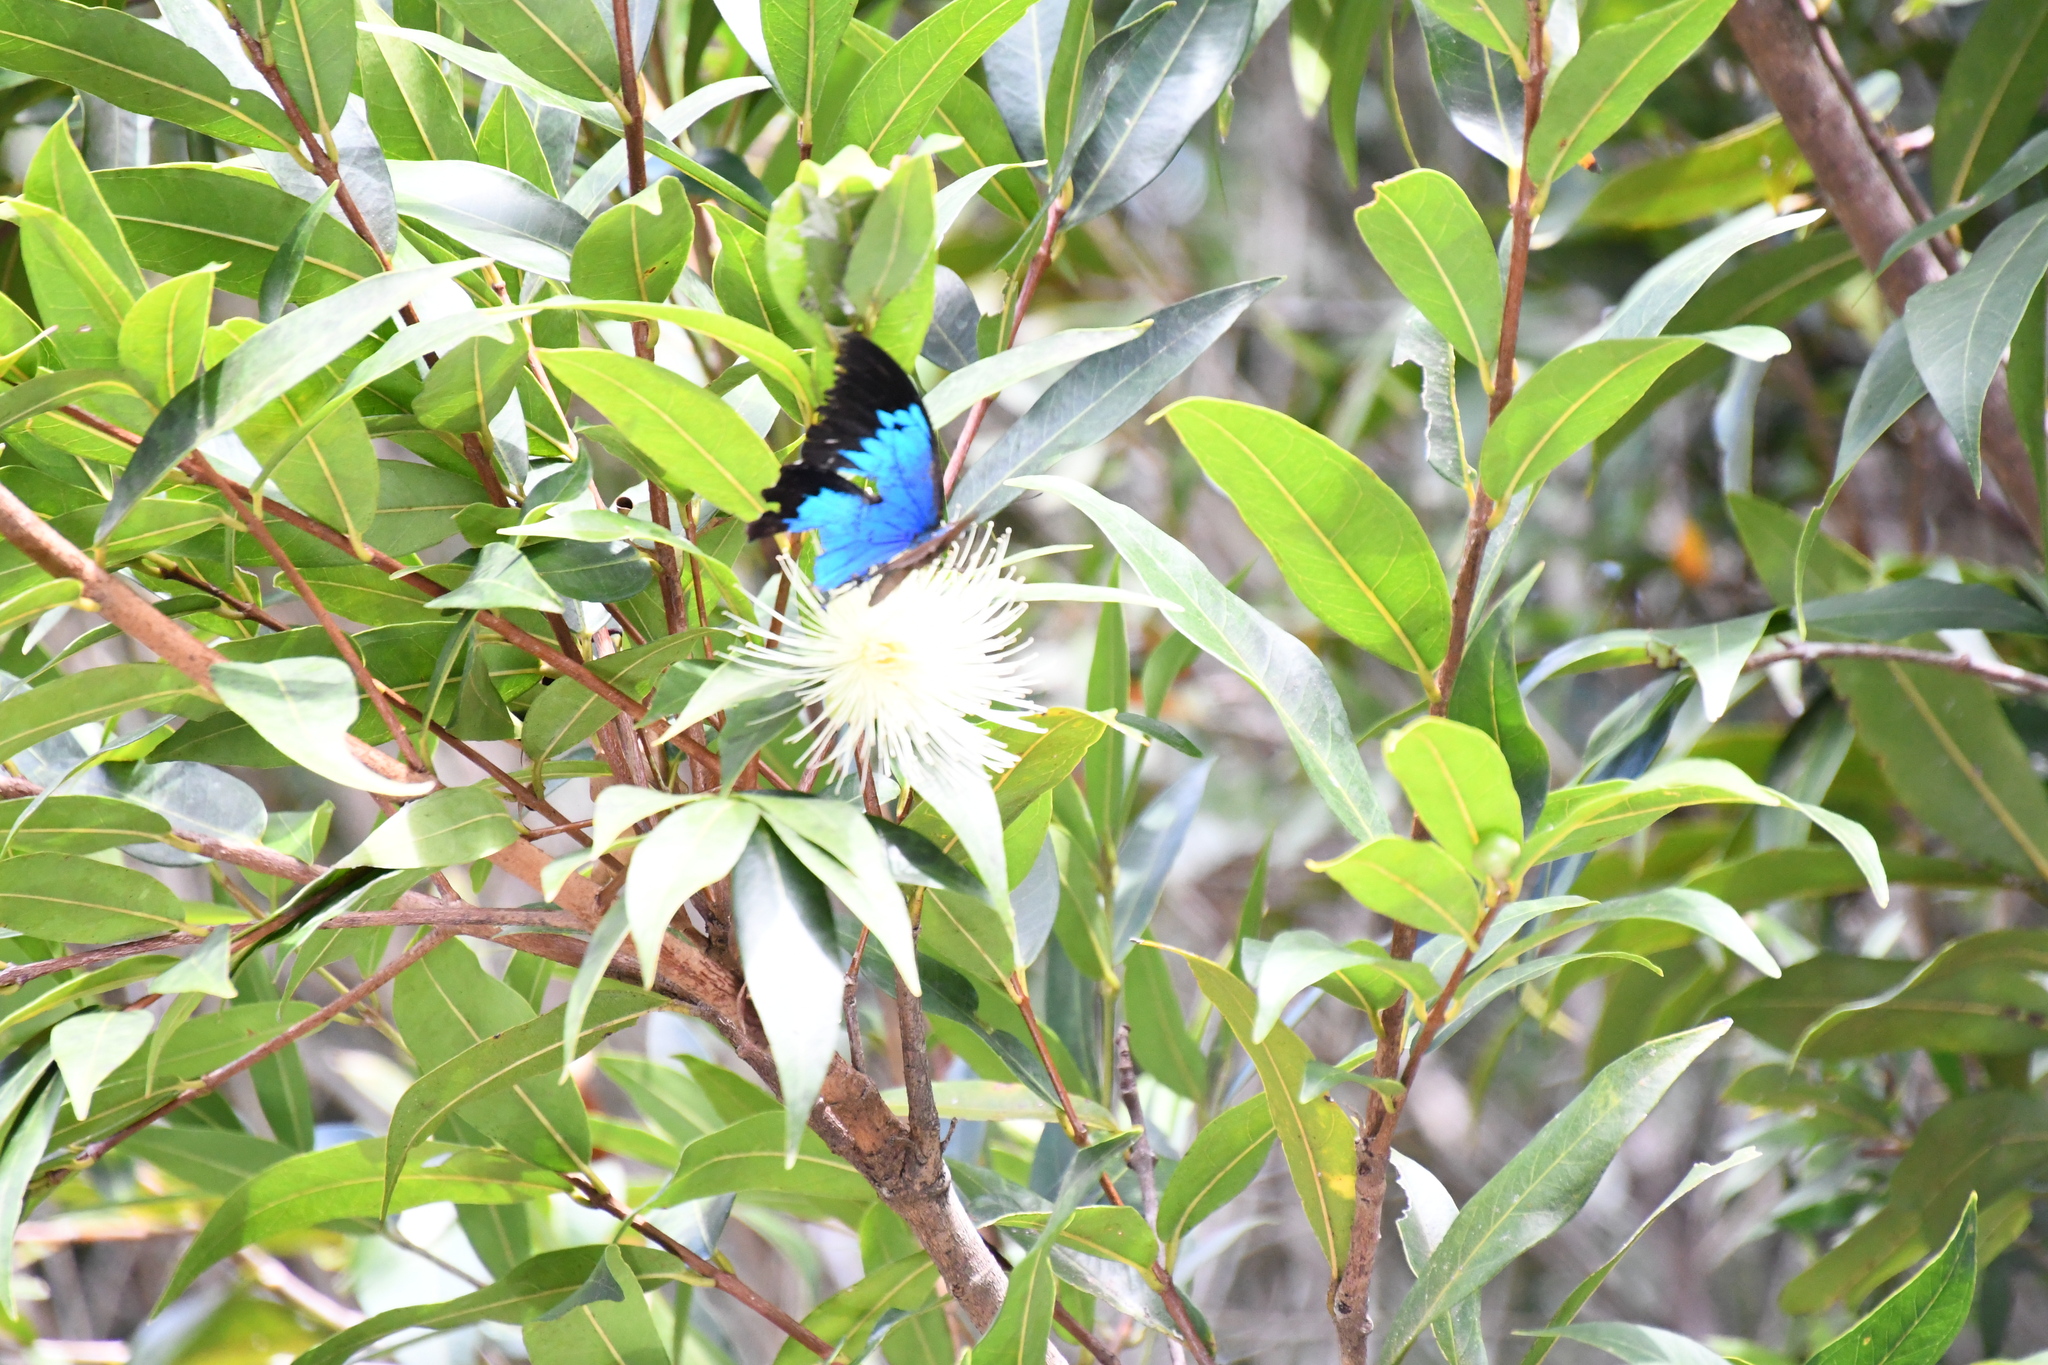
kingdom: Animalia
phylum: Arthropoda
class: Insecta
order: Lepidoptera
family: Papilionidae
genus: Papilio
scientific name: Papilio ulysses
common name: Blue emperor
